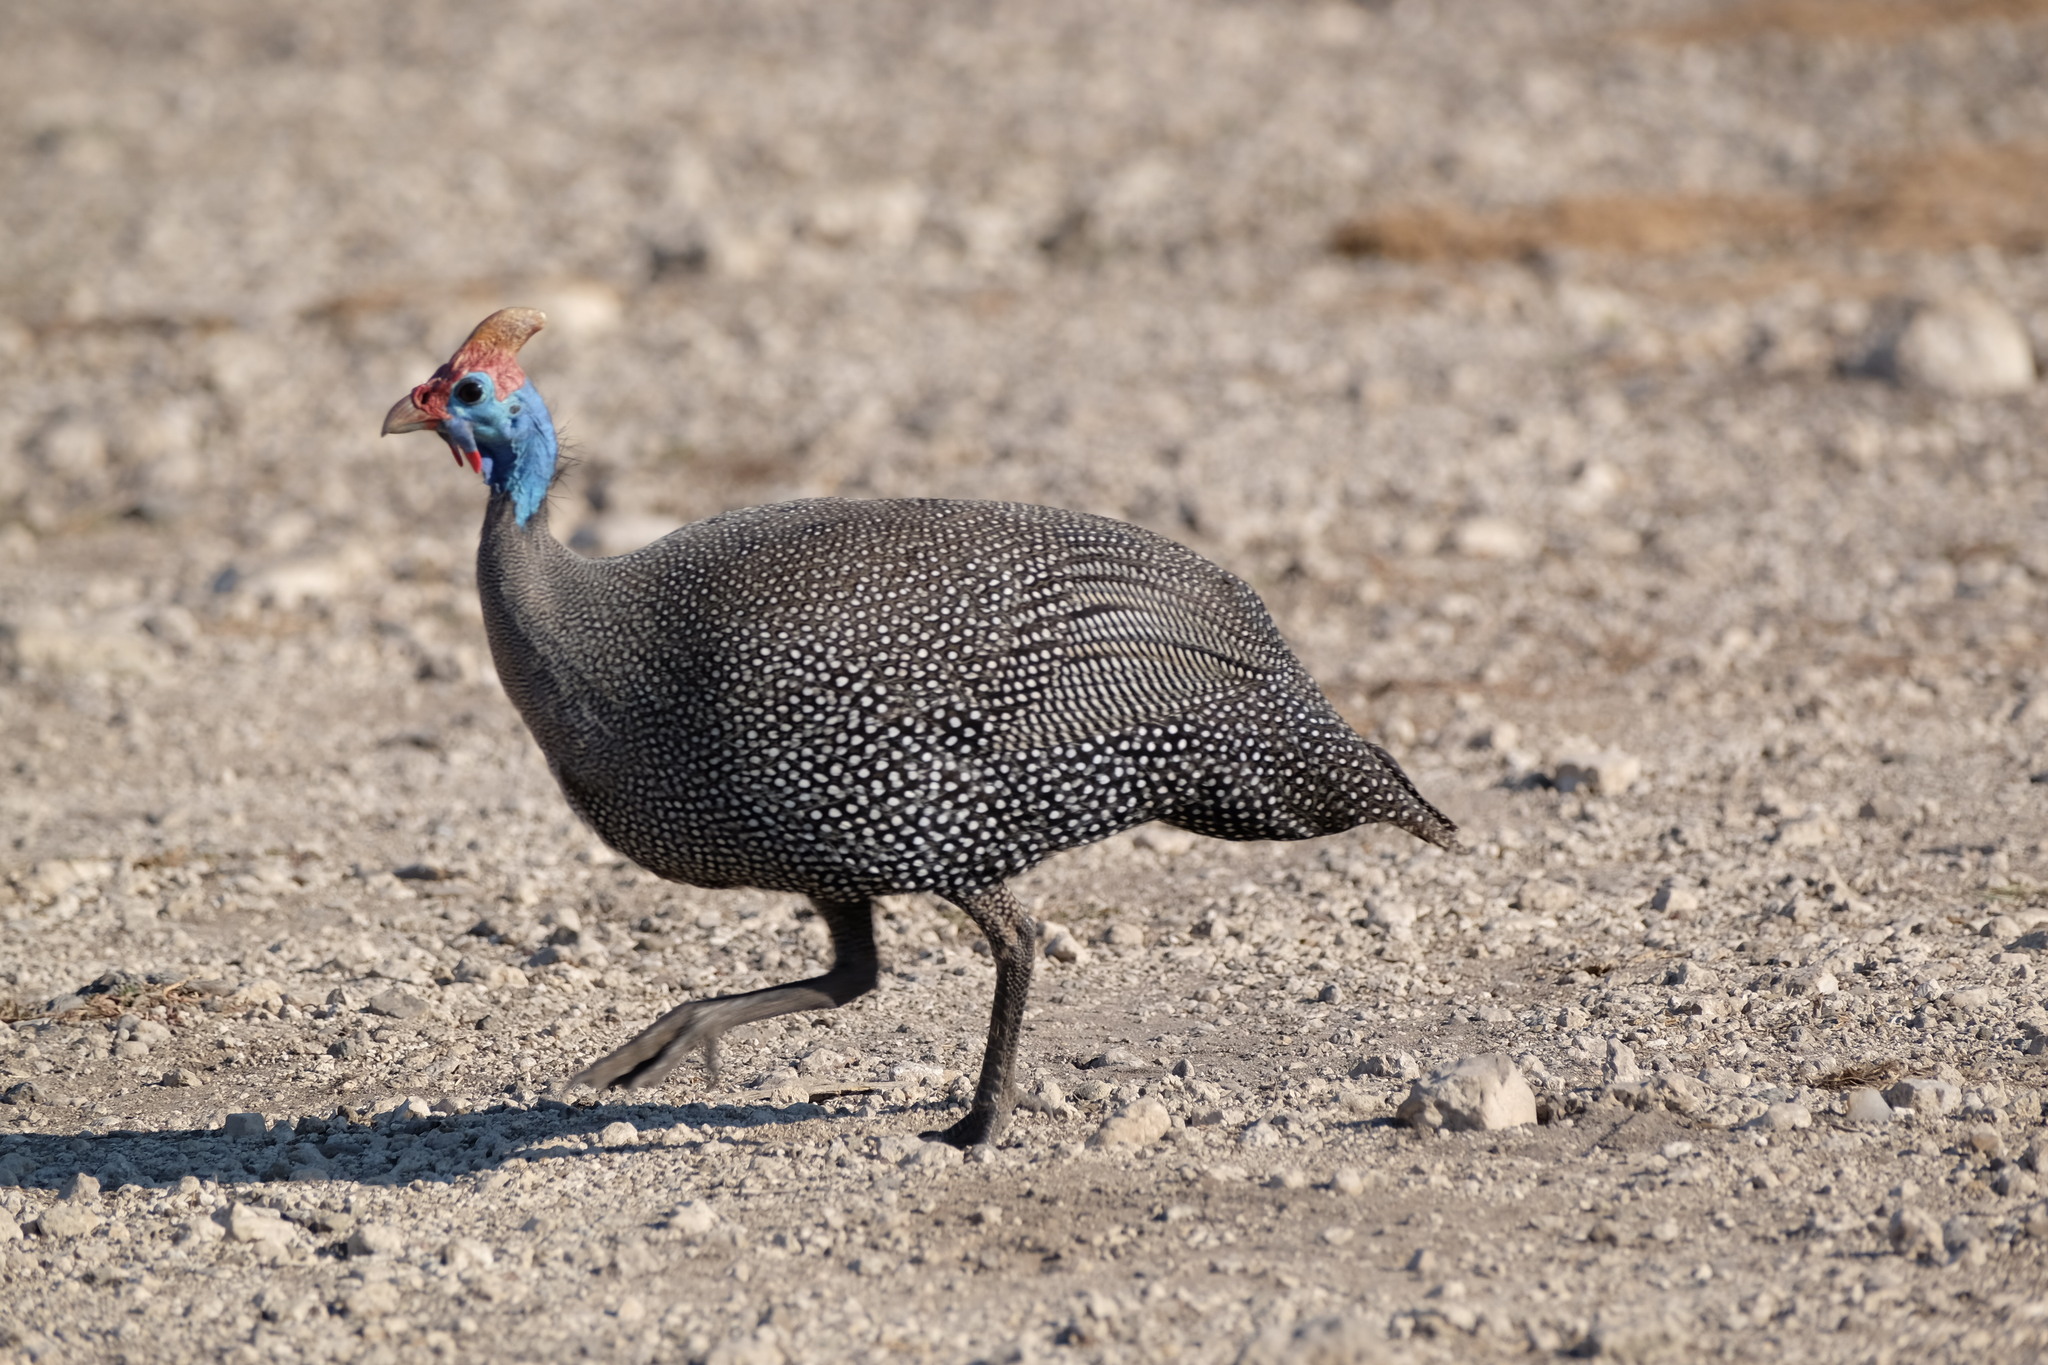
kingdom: Animalia
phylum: Chordata
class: Aves
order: Galliformes
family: Numididae
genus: Numida
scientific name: Numida meleagris
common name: Helmeted guineafowl
